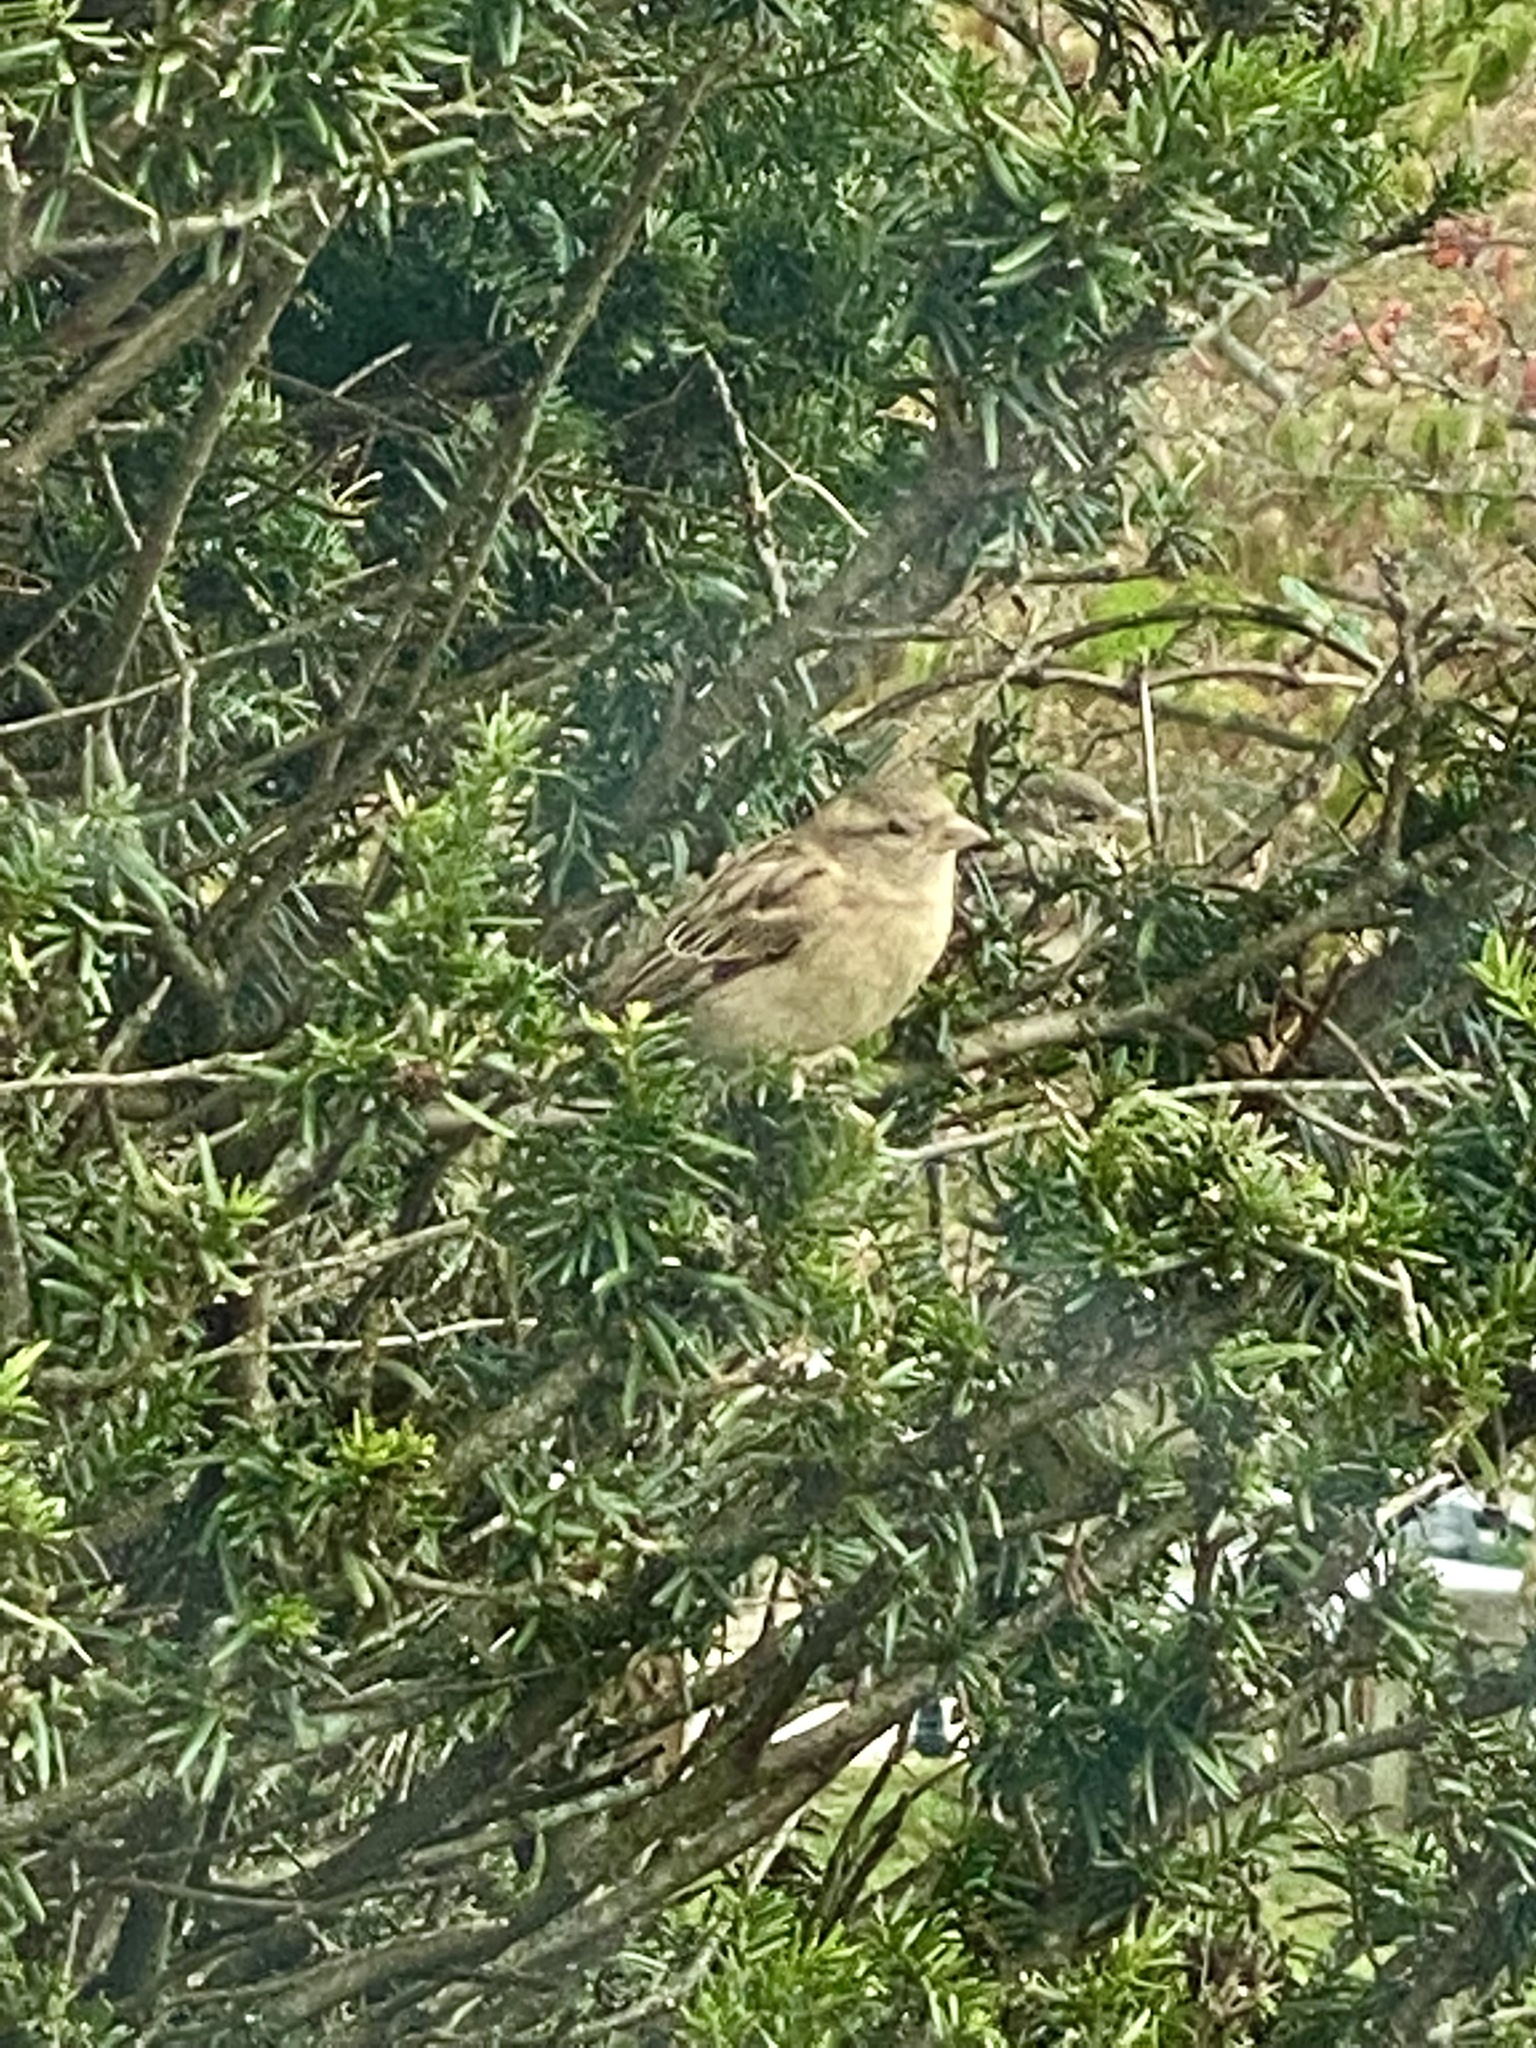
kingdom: Animalia
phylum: Chordata
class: Aves
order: Passeriformes
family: Passeridae
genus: Passer
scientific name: Passer domesticus
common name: House sparrow
